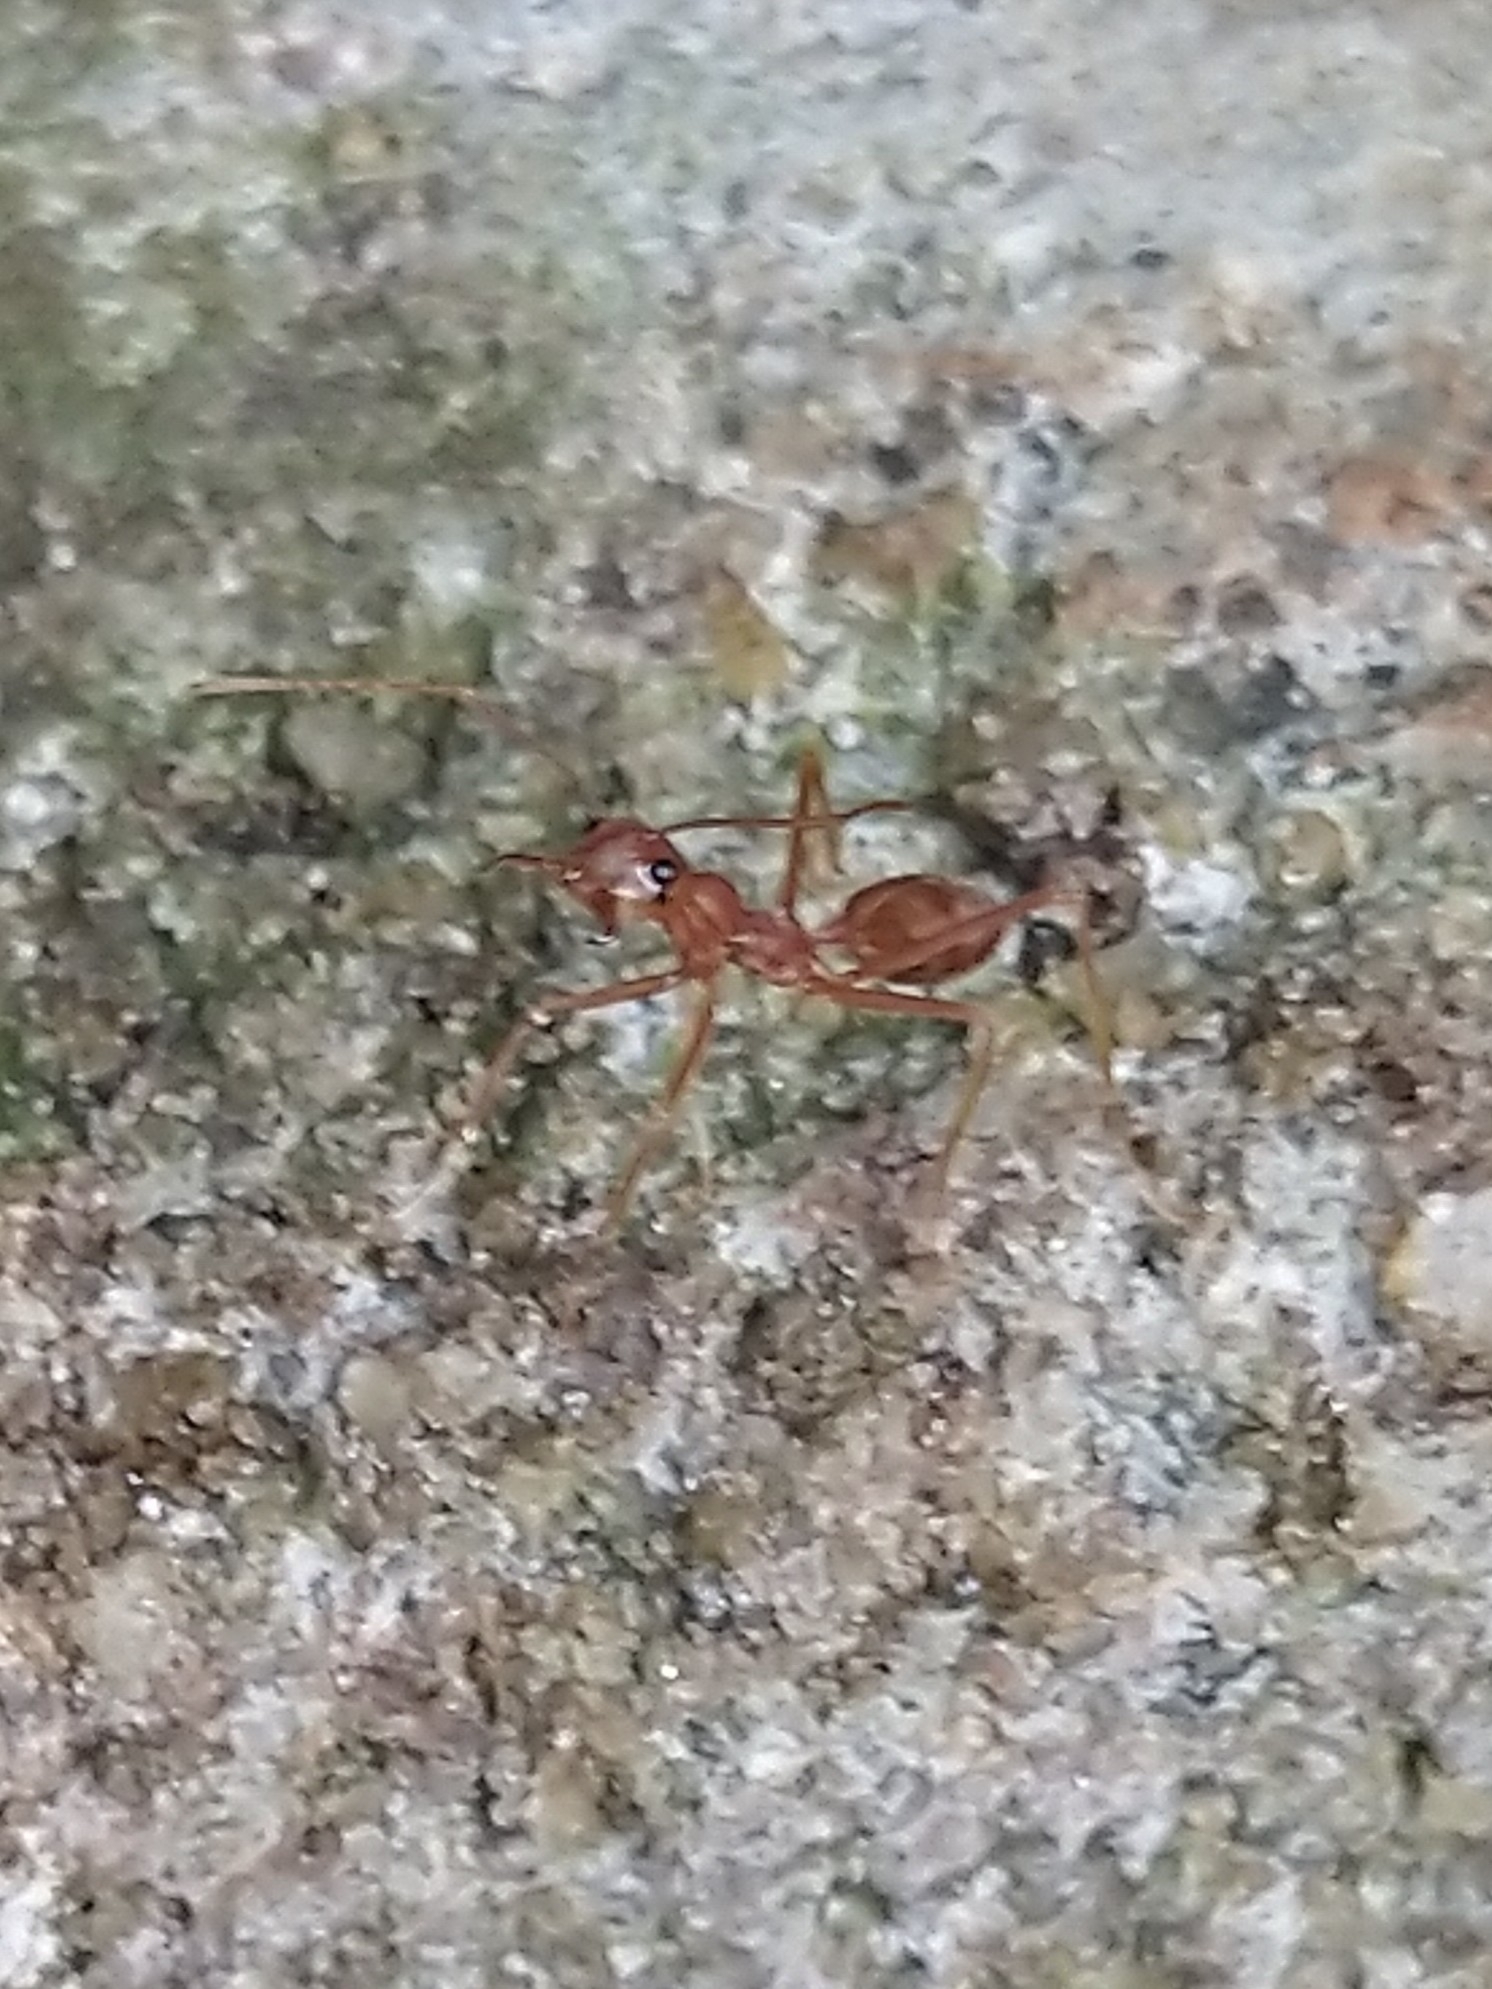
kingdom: Animalia
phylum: Arthropoda
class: Insecta
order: Hymenoptera
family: Formicidae
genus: Oecophylla
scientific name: Oecophylla smaragdina
